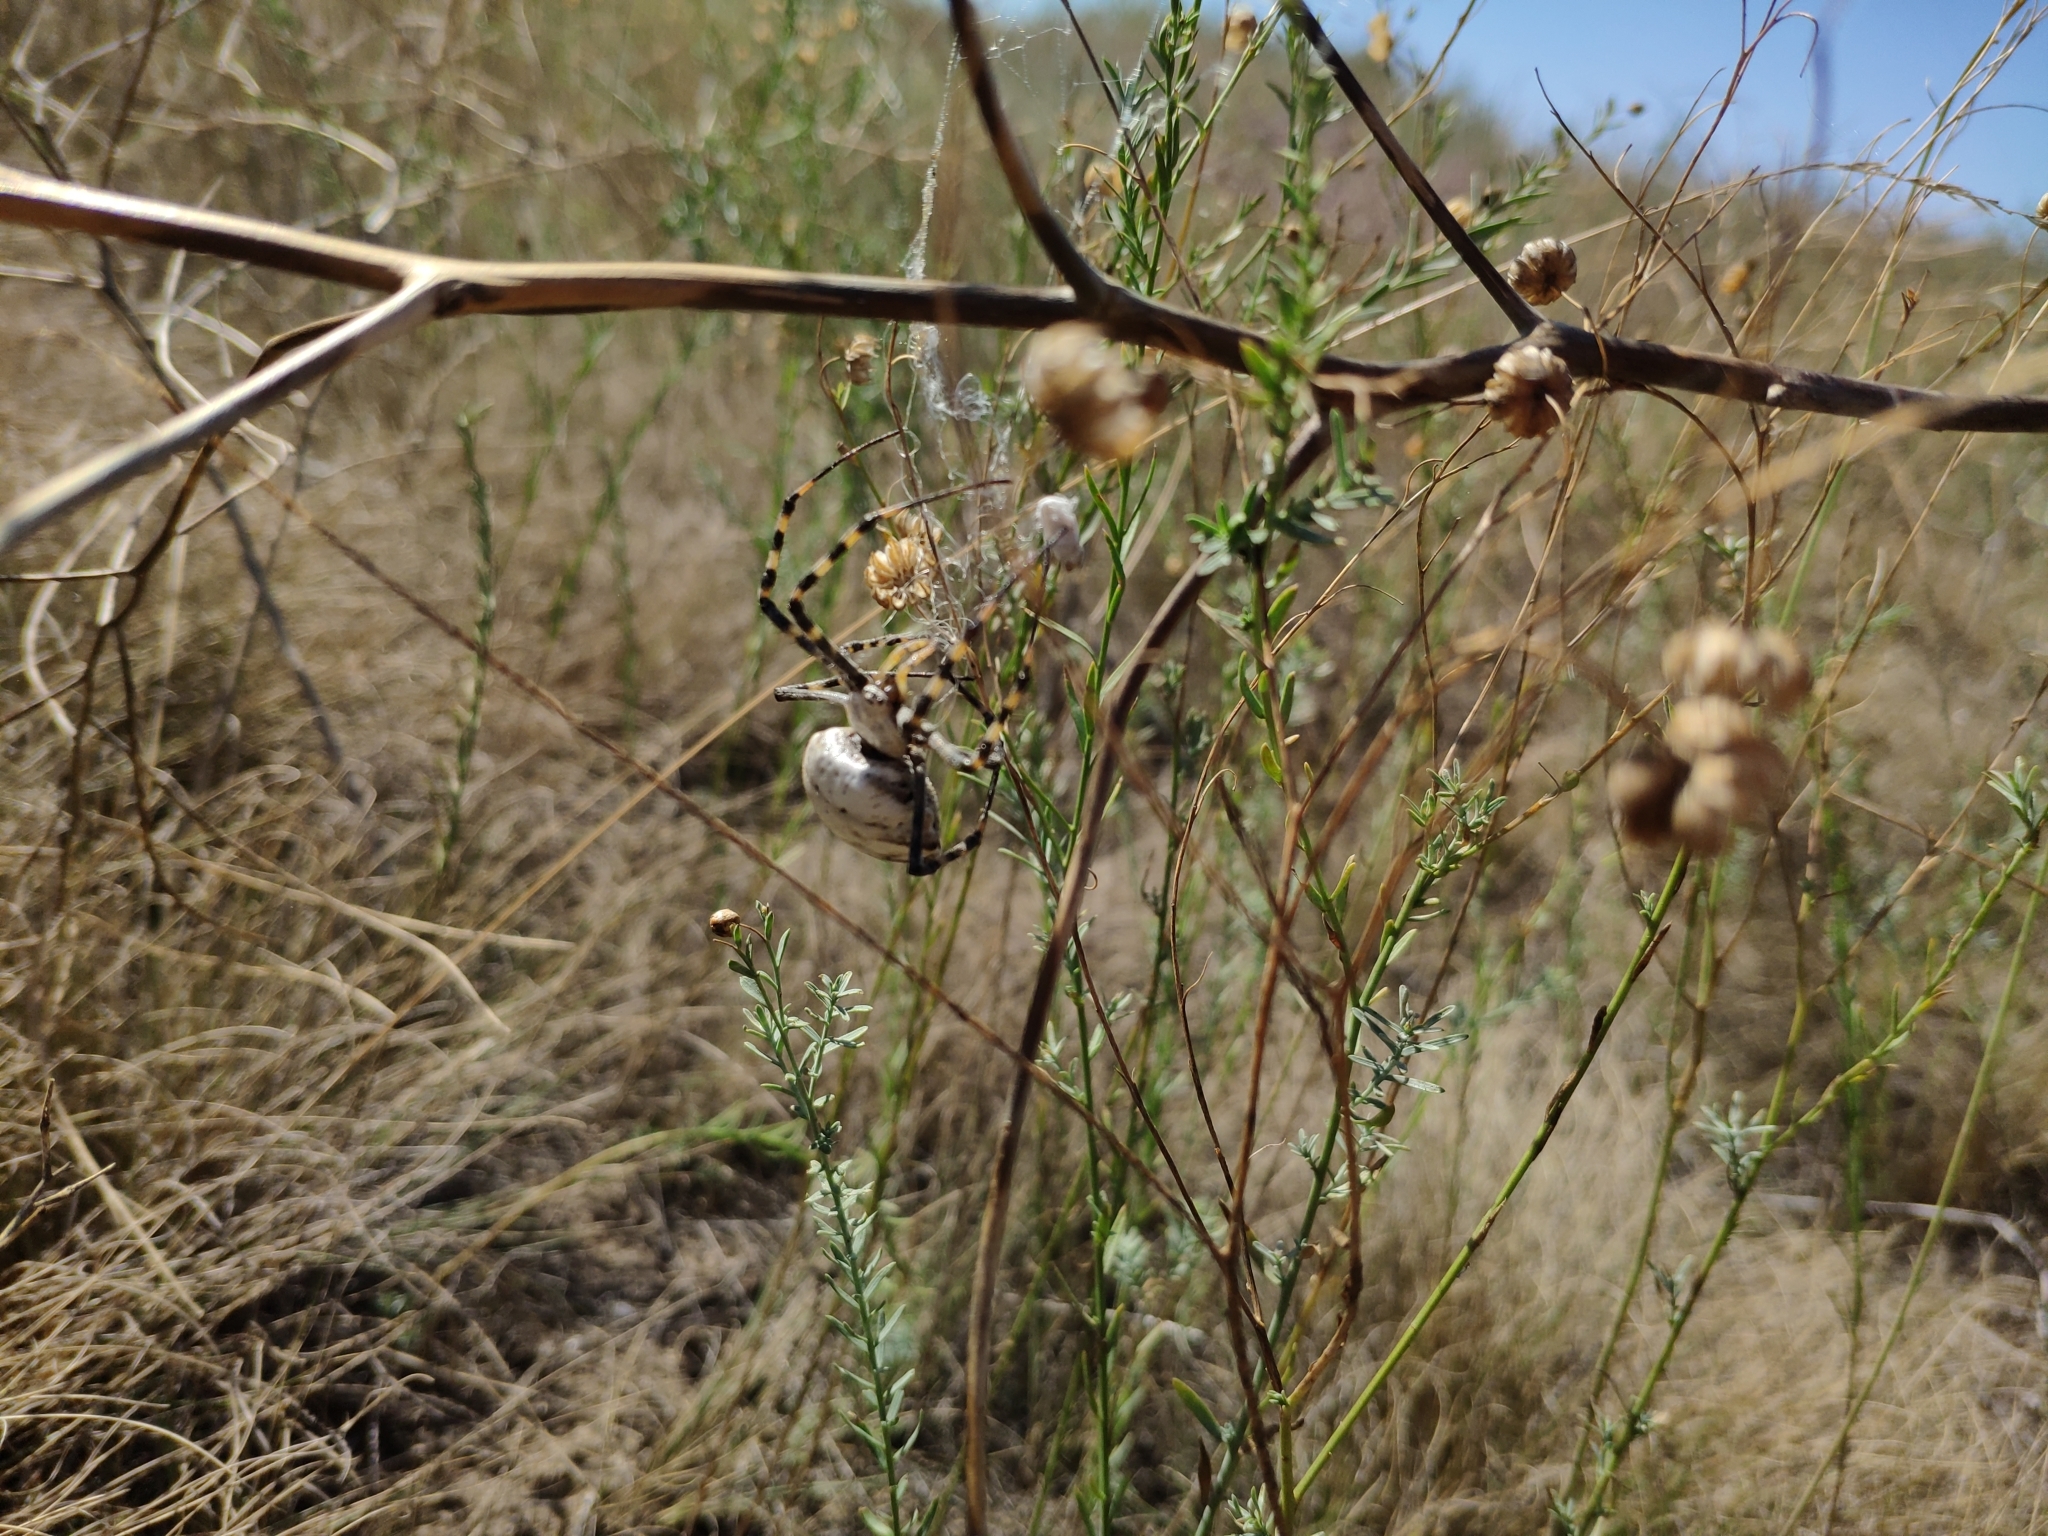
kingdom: Animalia
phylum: Arthropoda
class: Arachnida
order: Araneae
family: Araneidae
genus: Argiope
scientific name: Argiope lobata
